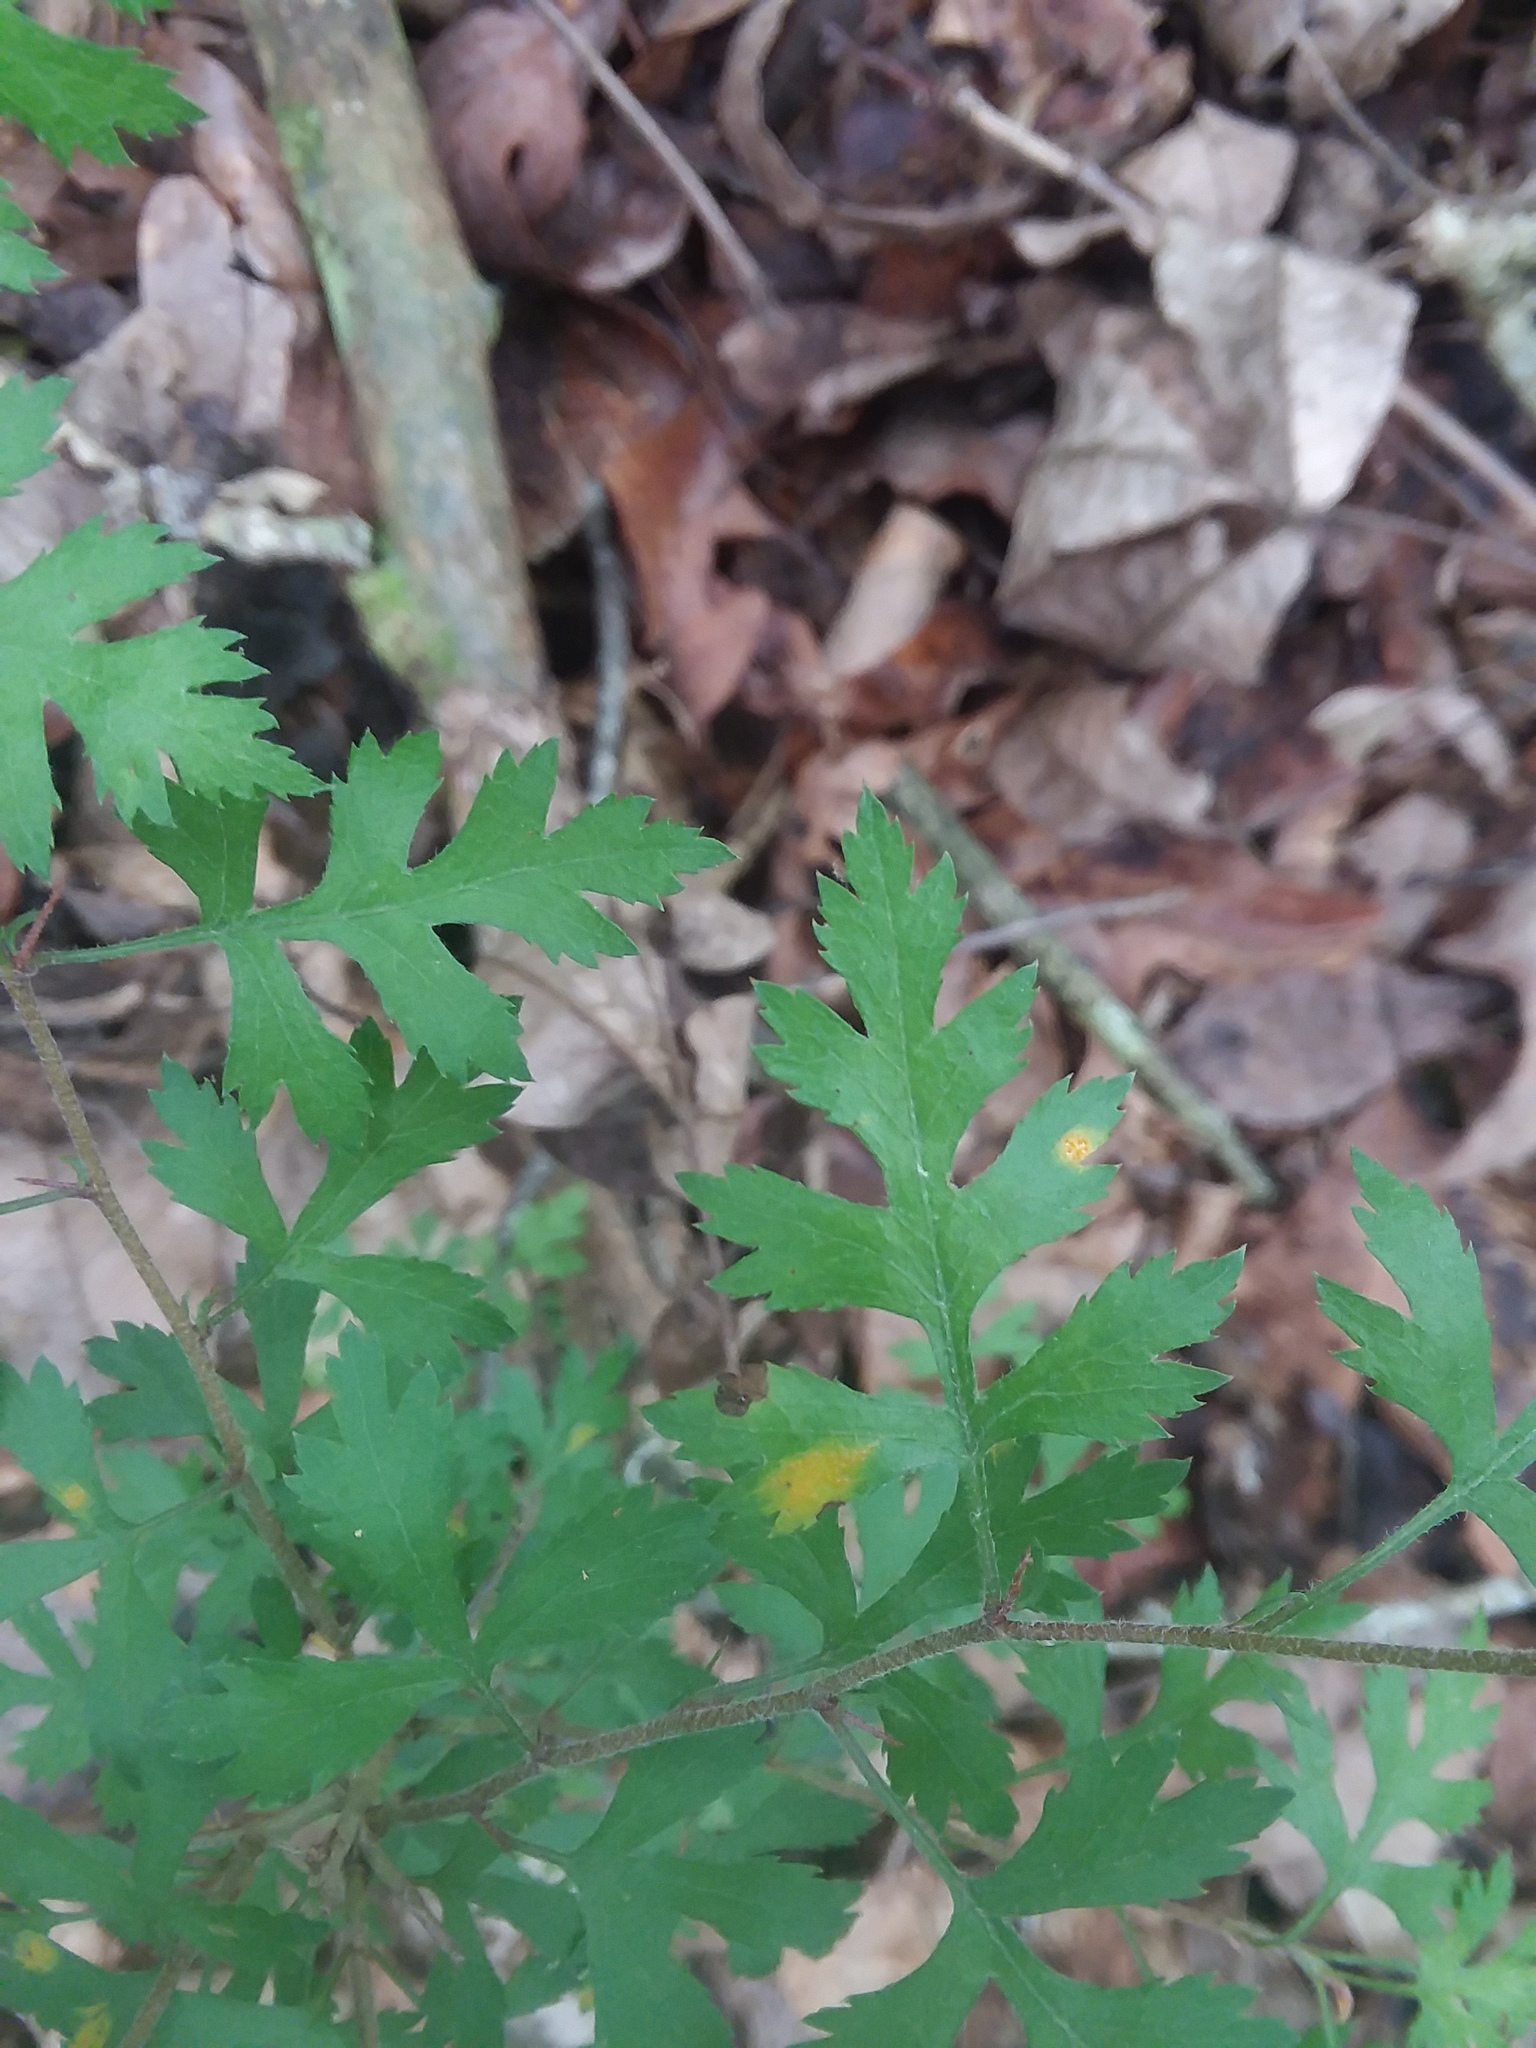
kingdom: Plantae
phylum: Tracheophyta
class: Magnoliopsida
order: Rosales
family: Rosaceae
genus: Crataegus
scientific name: Crataegus marshallii
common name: Parsley-hawthorn
